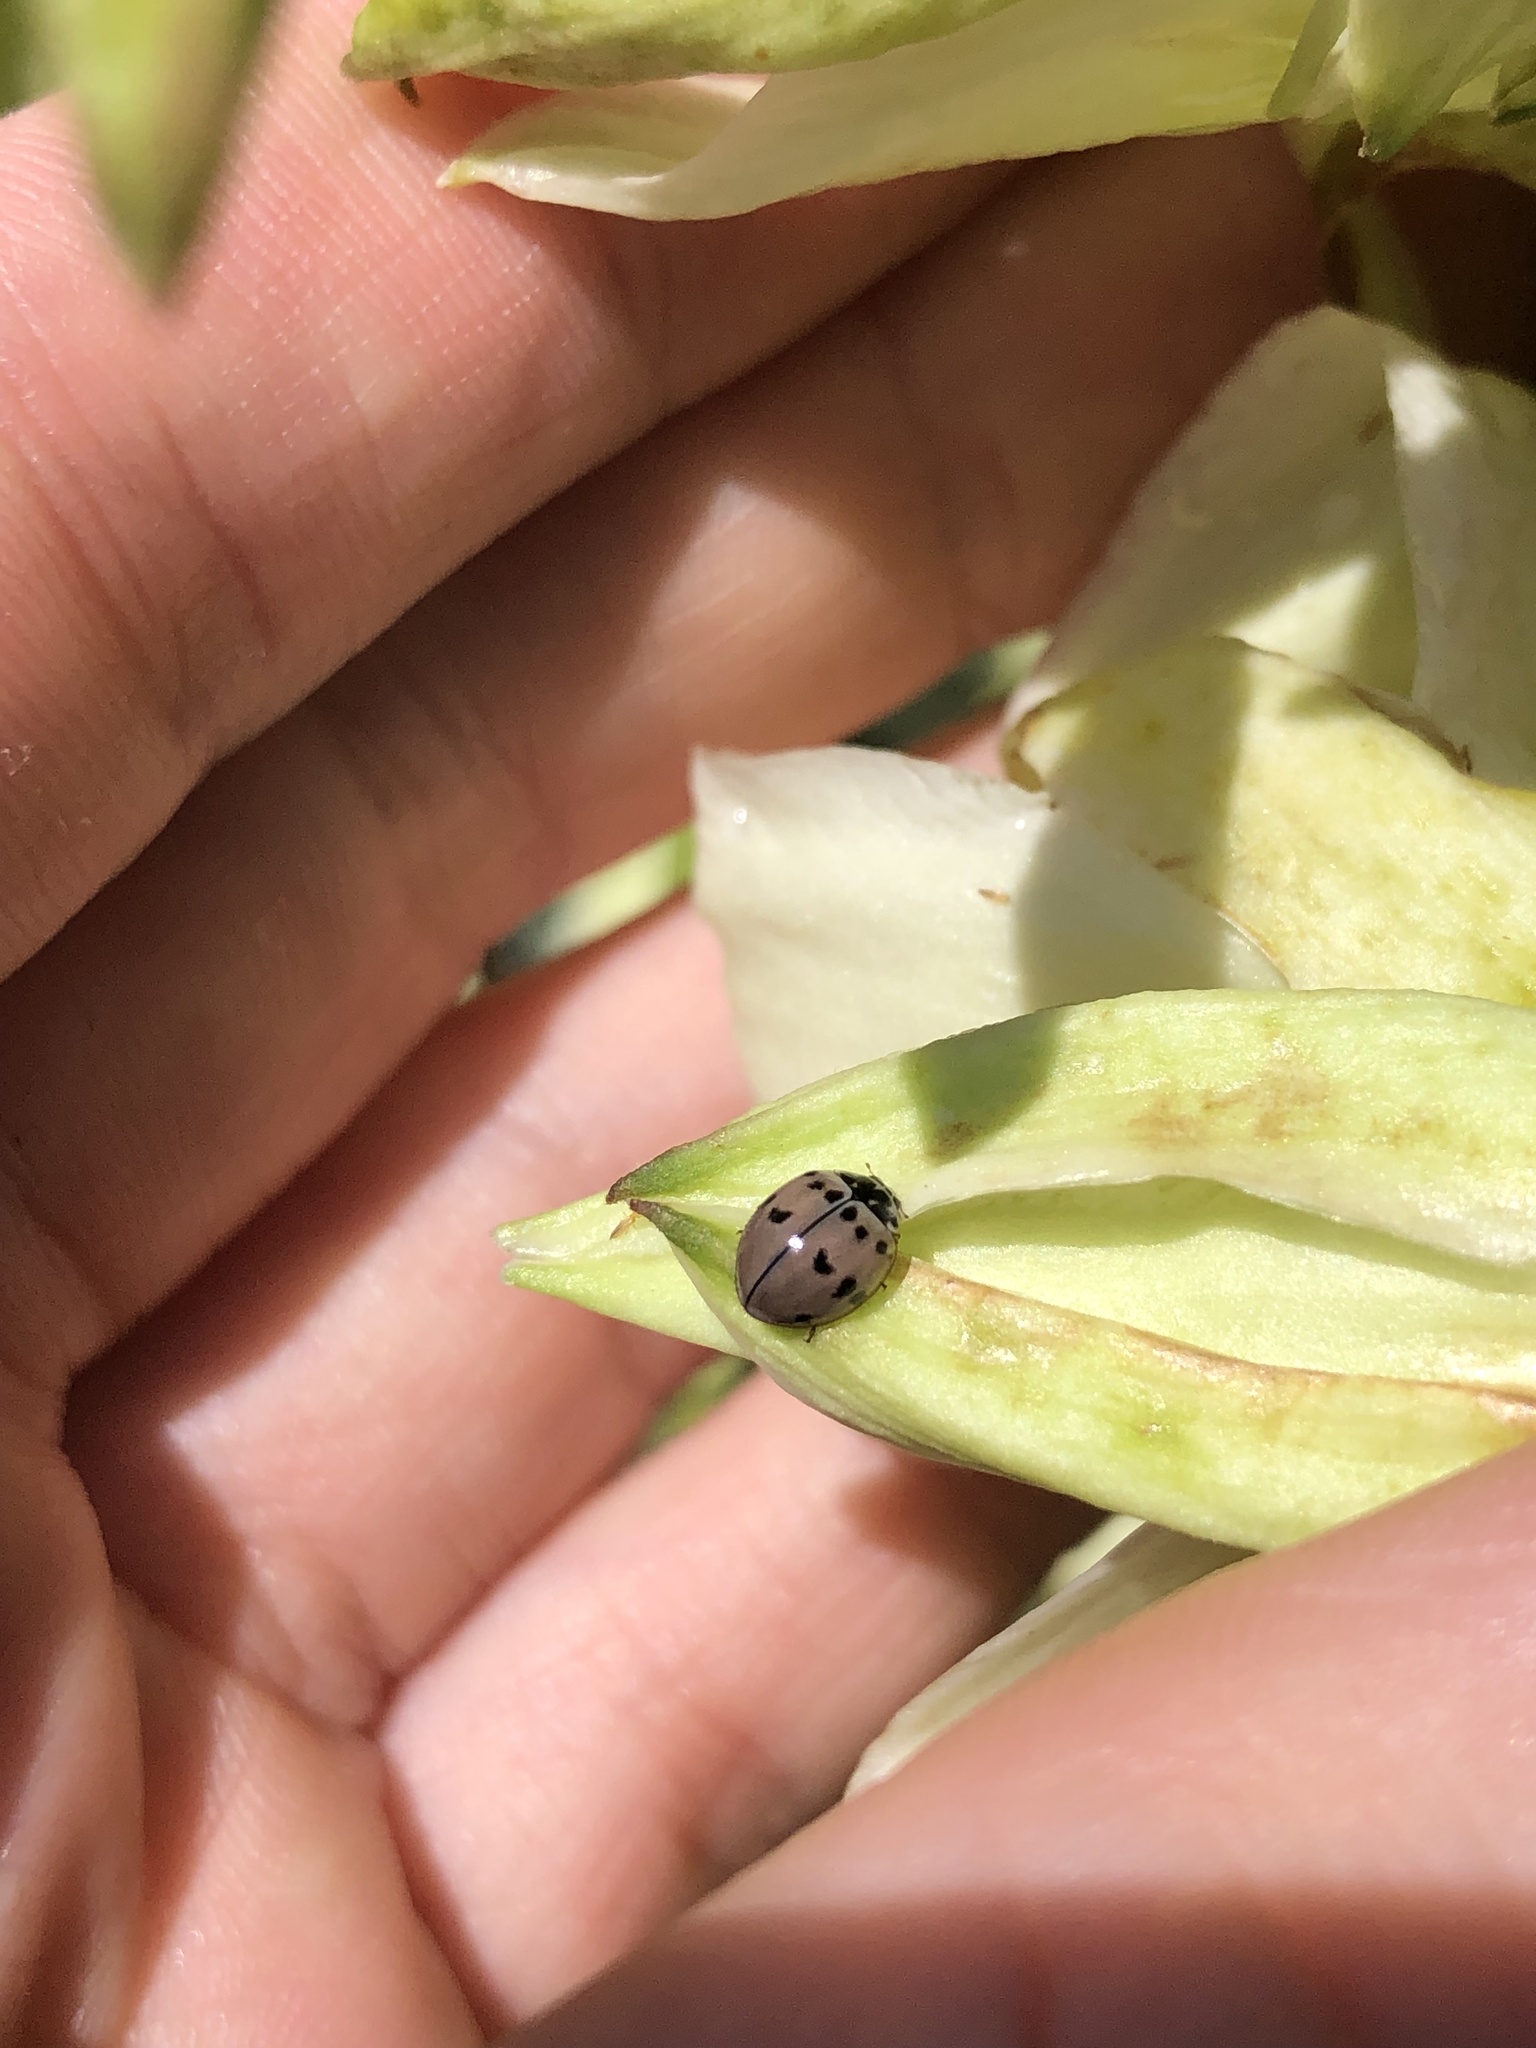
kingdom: Animalia
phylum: Arthropoda
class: Insecta
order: Coleoptera
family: Coccinellidae
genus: Olla
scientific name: Olla v-nigrum
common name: Ashy gray lady beetle
